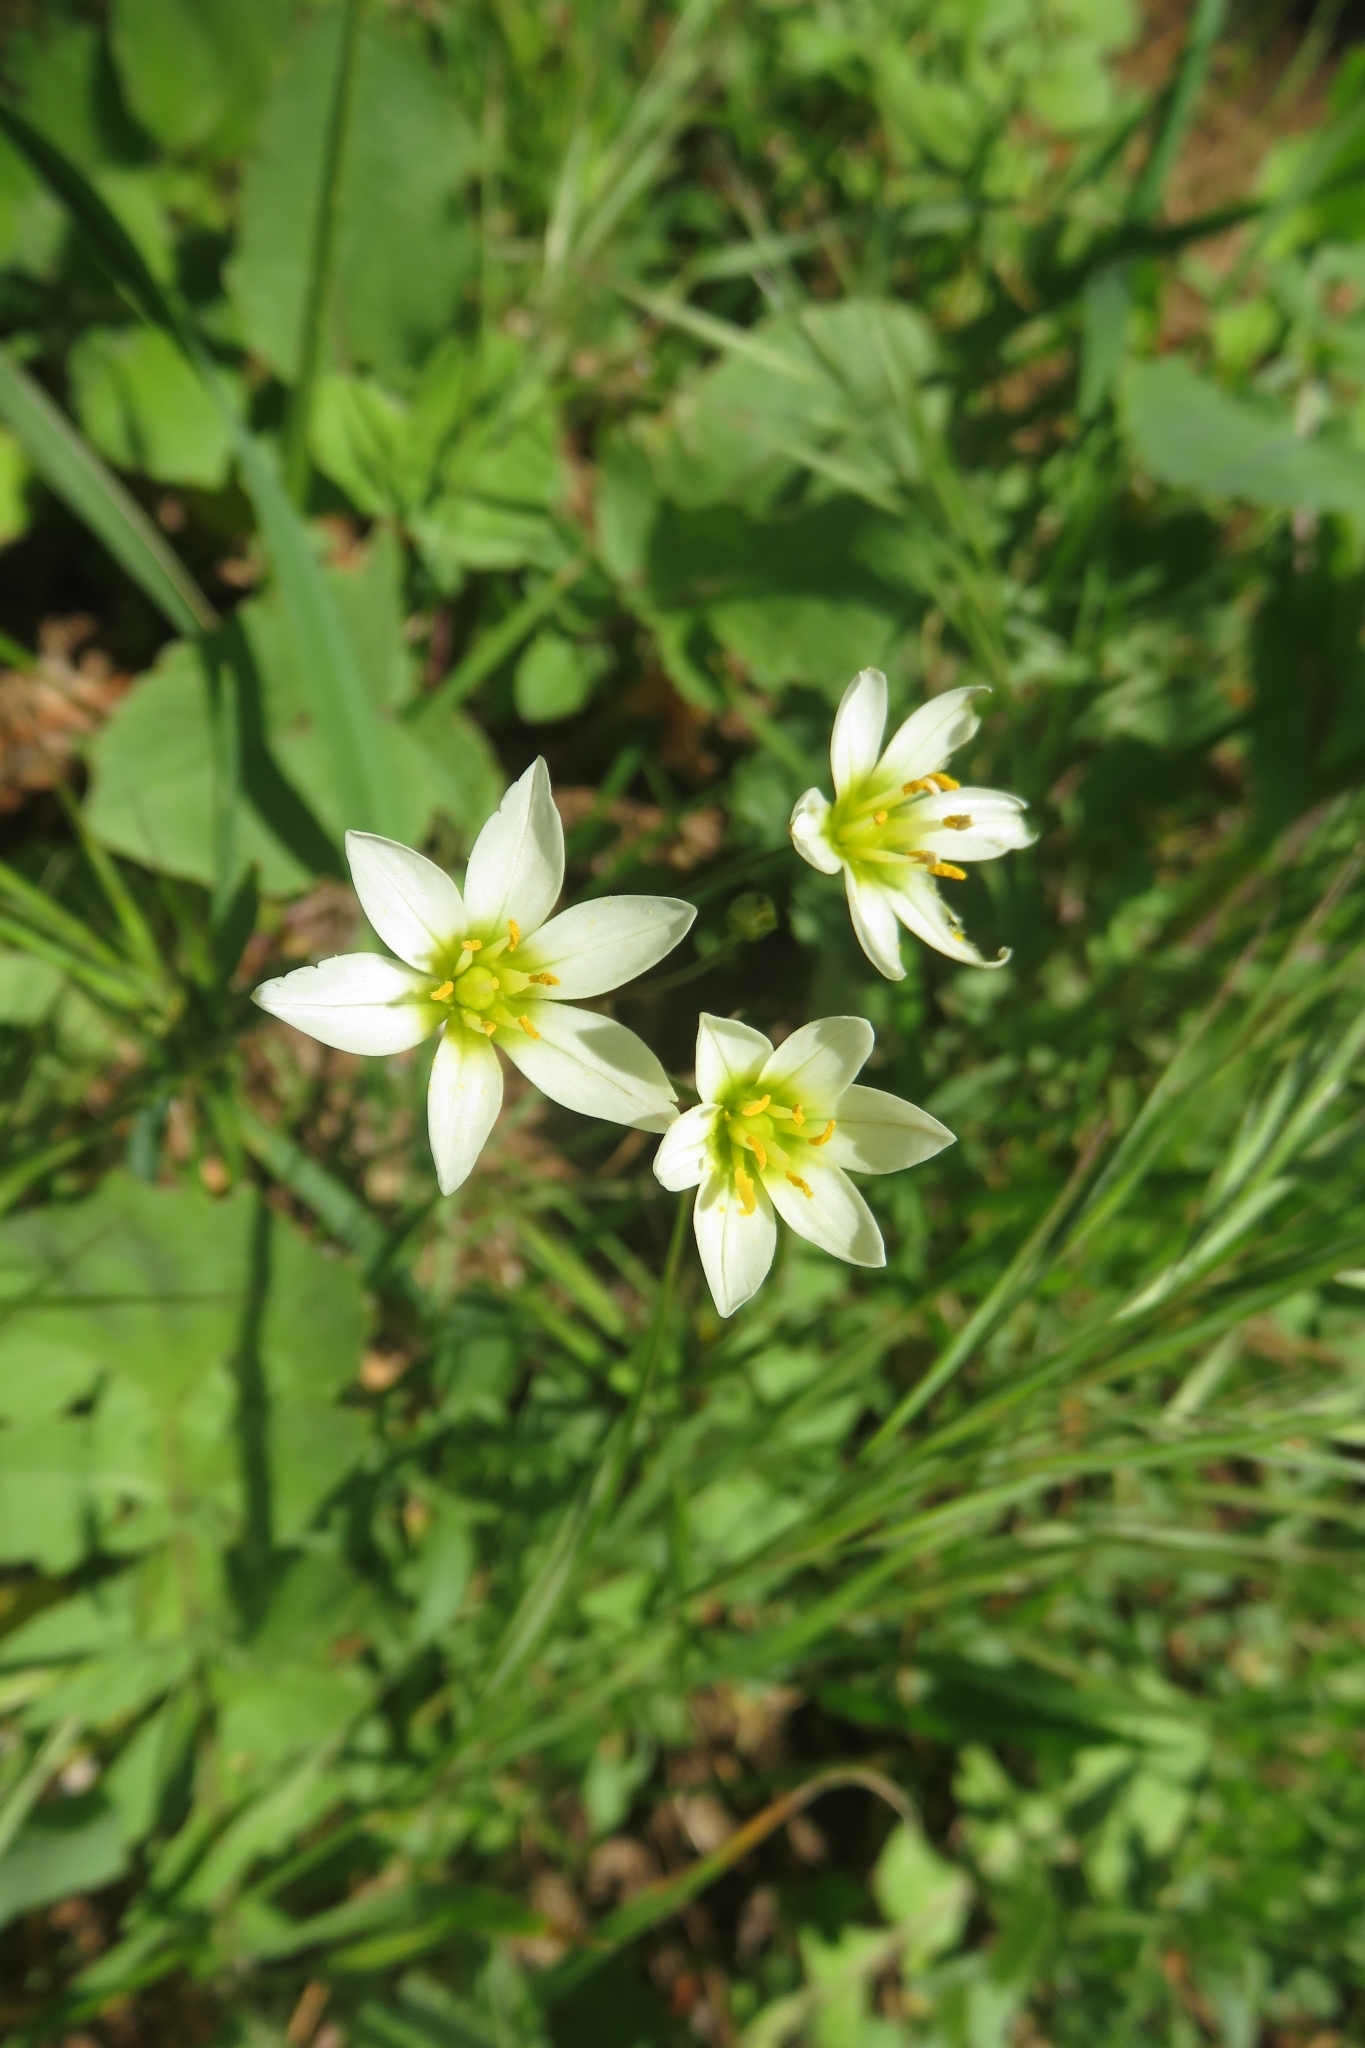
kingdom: Plantae
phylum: Tracheophyta
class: Liliopsida
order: Asparagales
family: Amaryllidaceae
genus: Nothoscordum
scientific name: Nothoscordum bivalve
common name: Crow-poison
